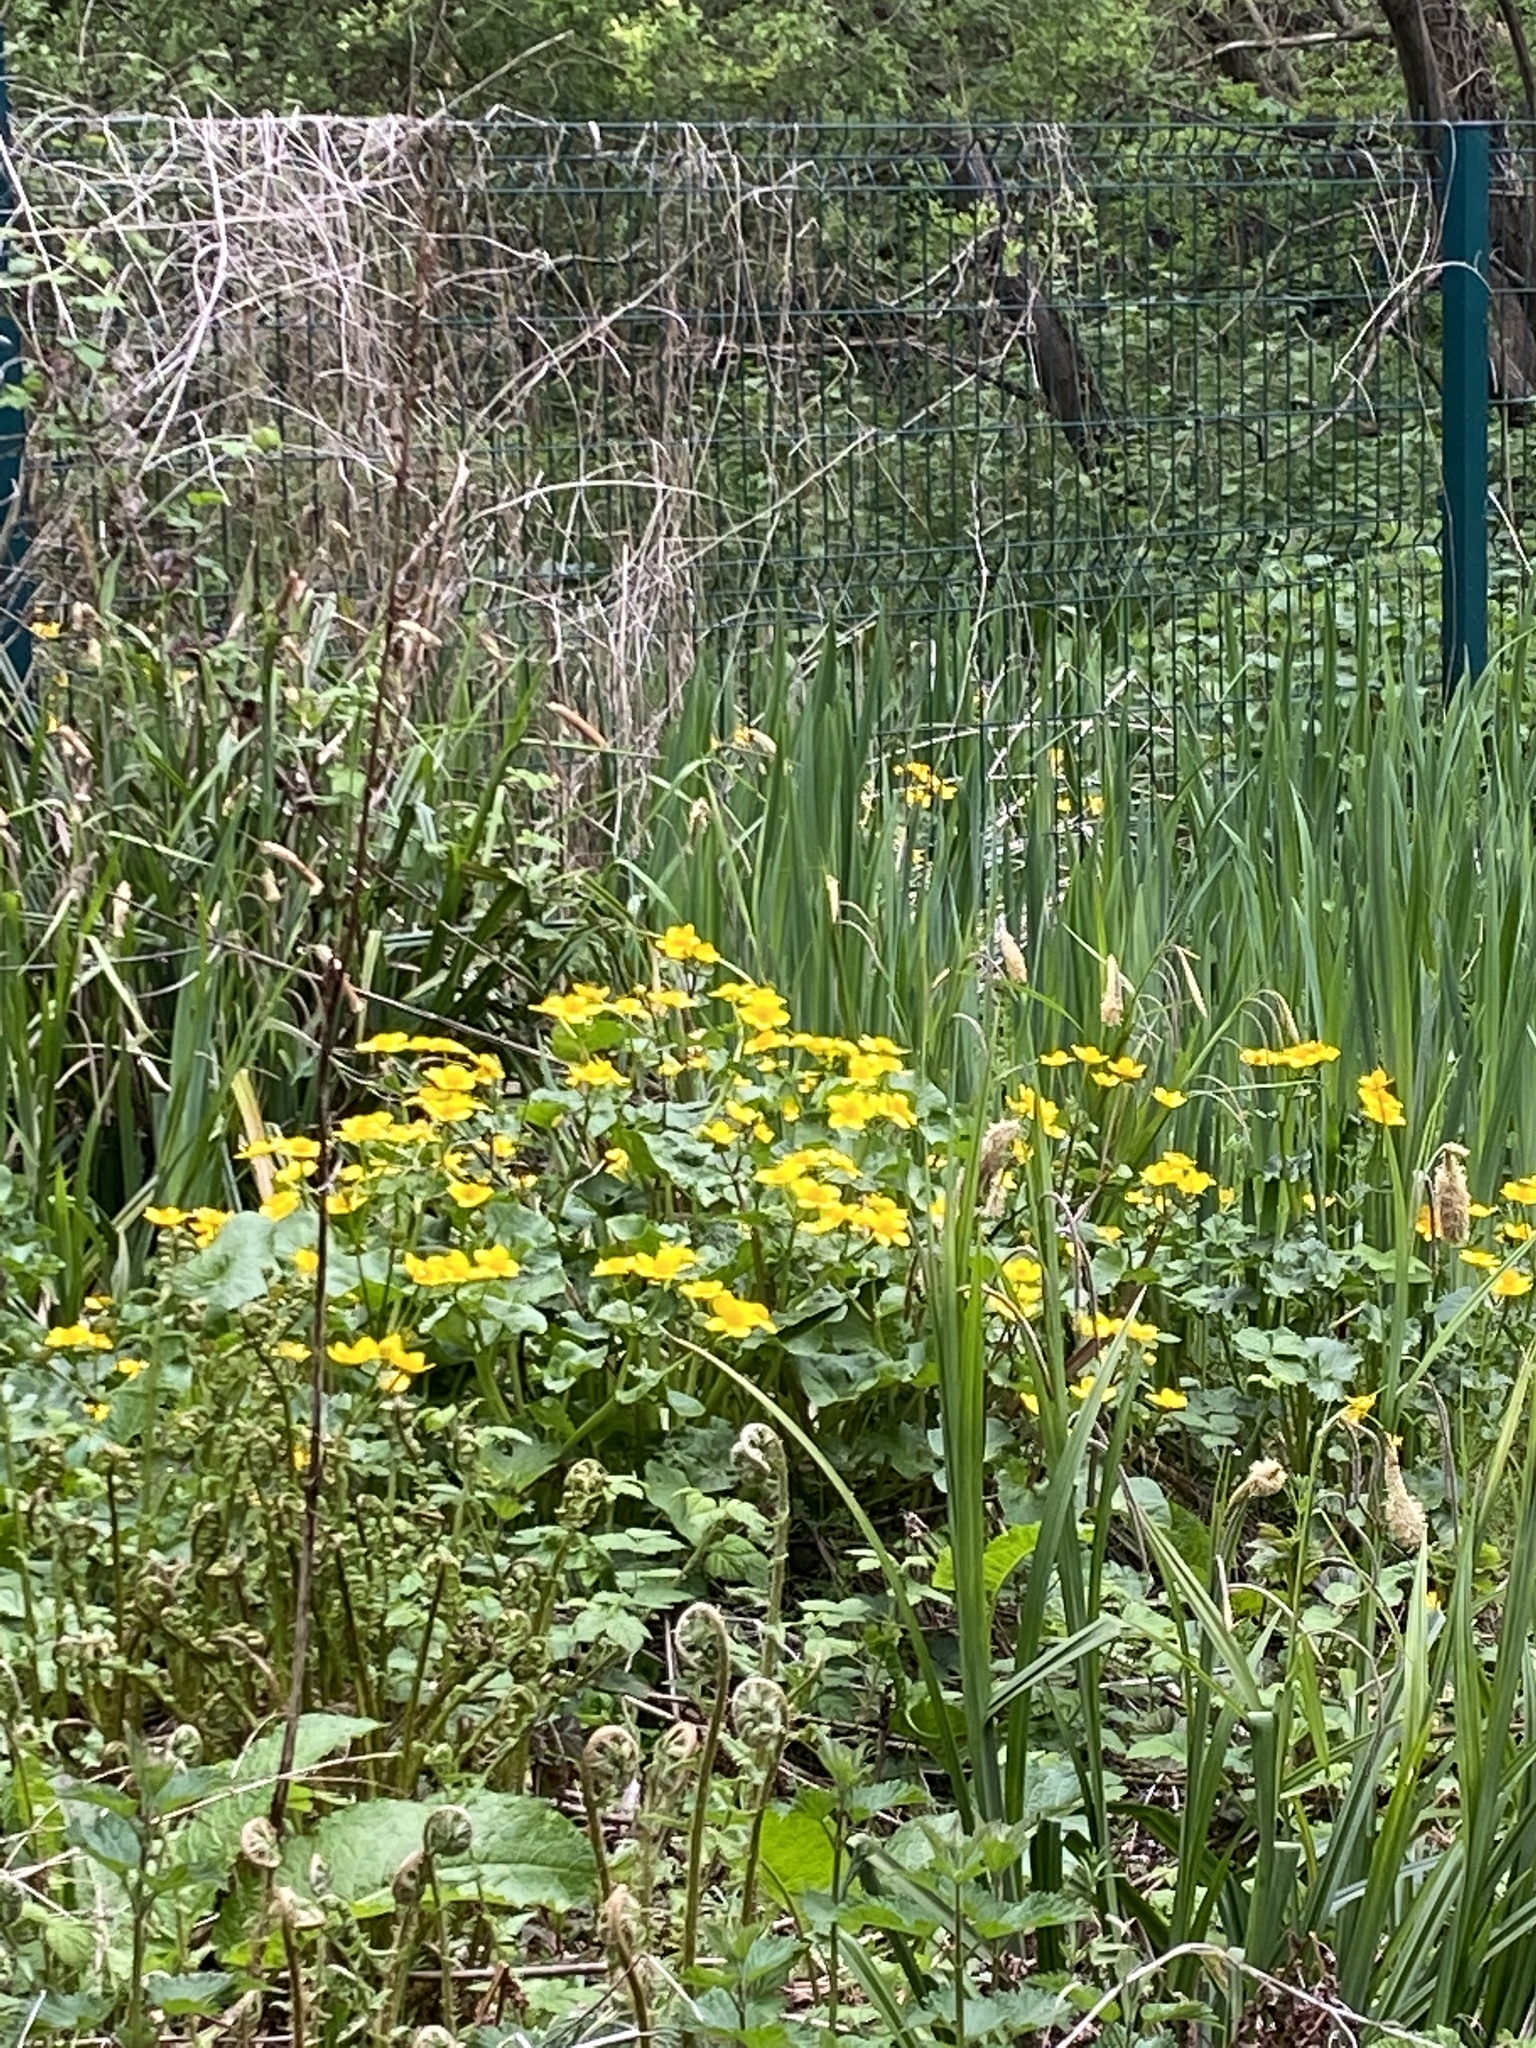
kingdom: Plantae
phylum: Tracheophyta
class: Magnoliopsida
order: Ranunculales
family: Ranunculaceae
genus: Caltha
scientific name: Caltha palustris
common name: Marsh marigold
